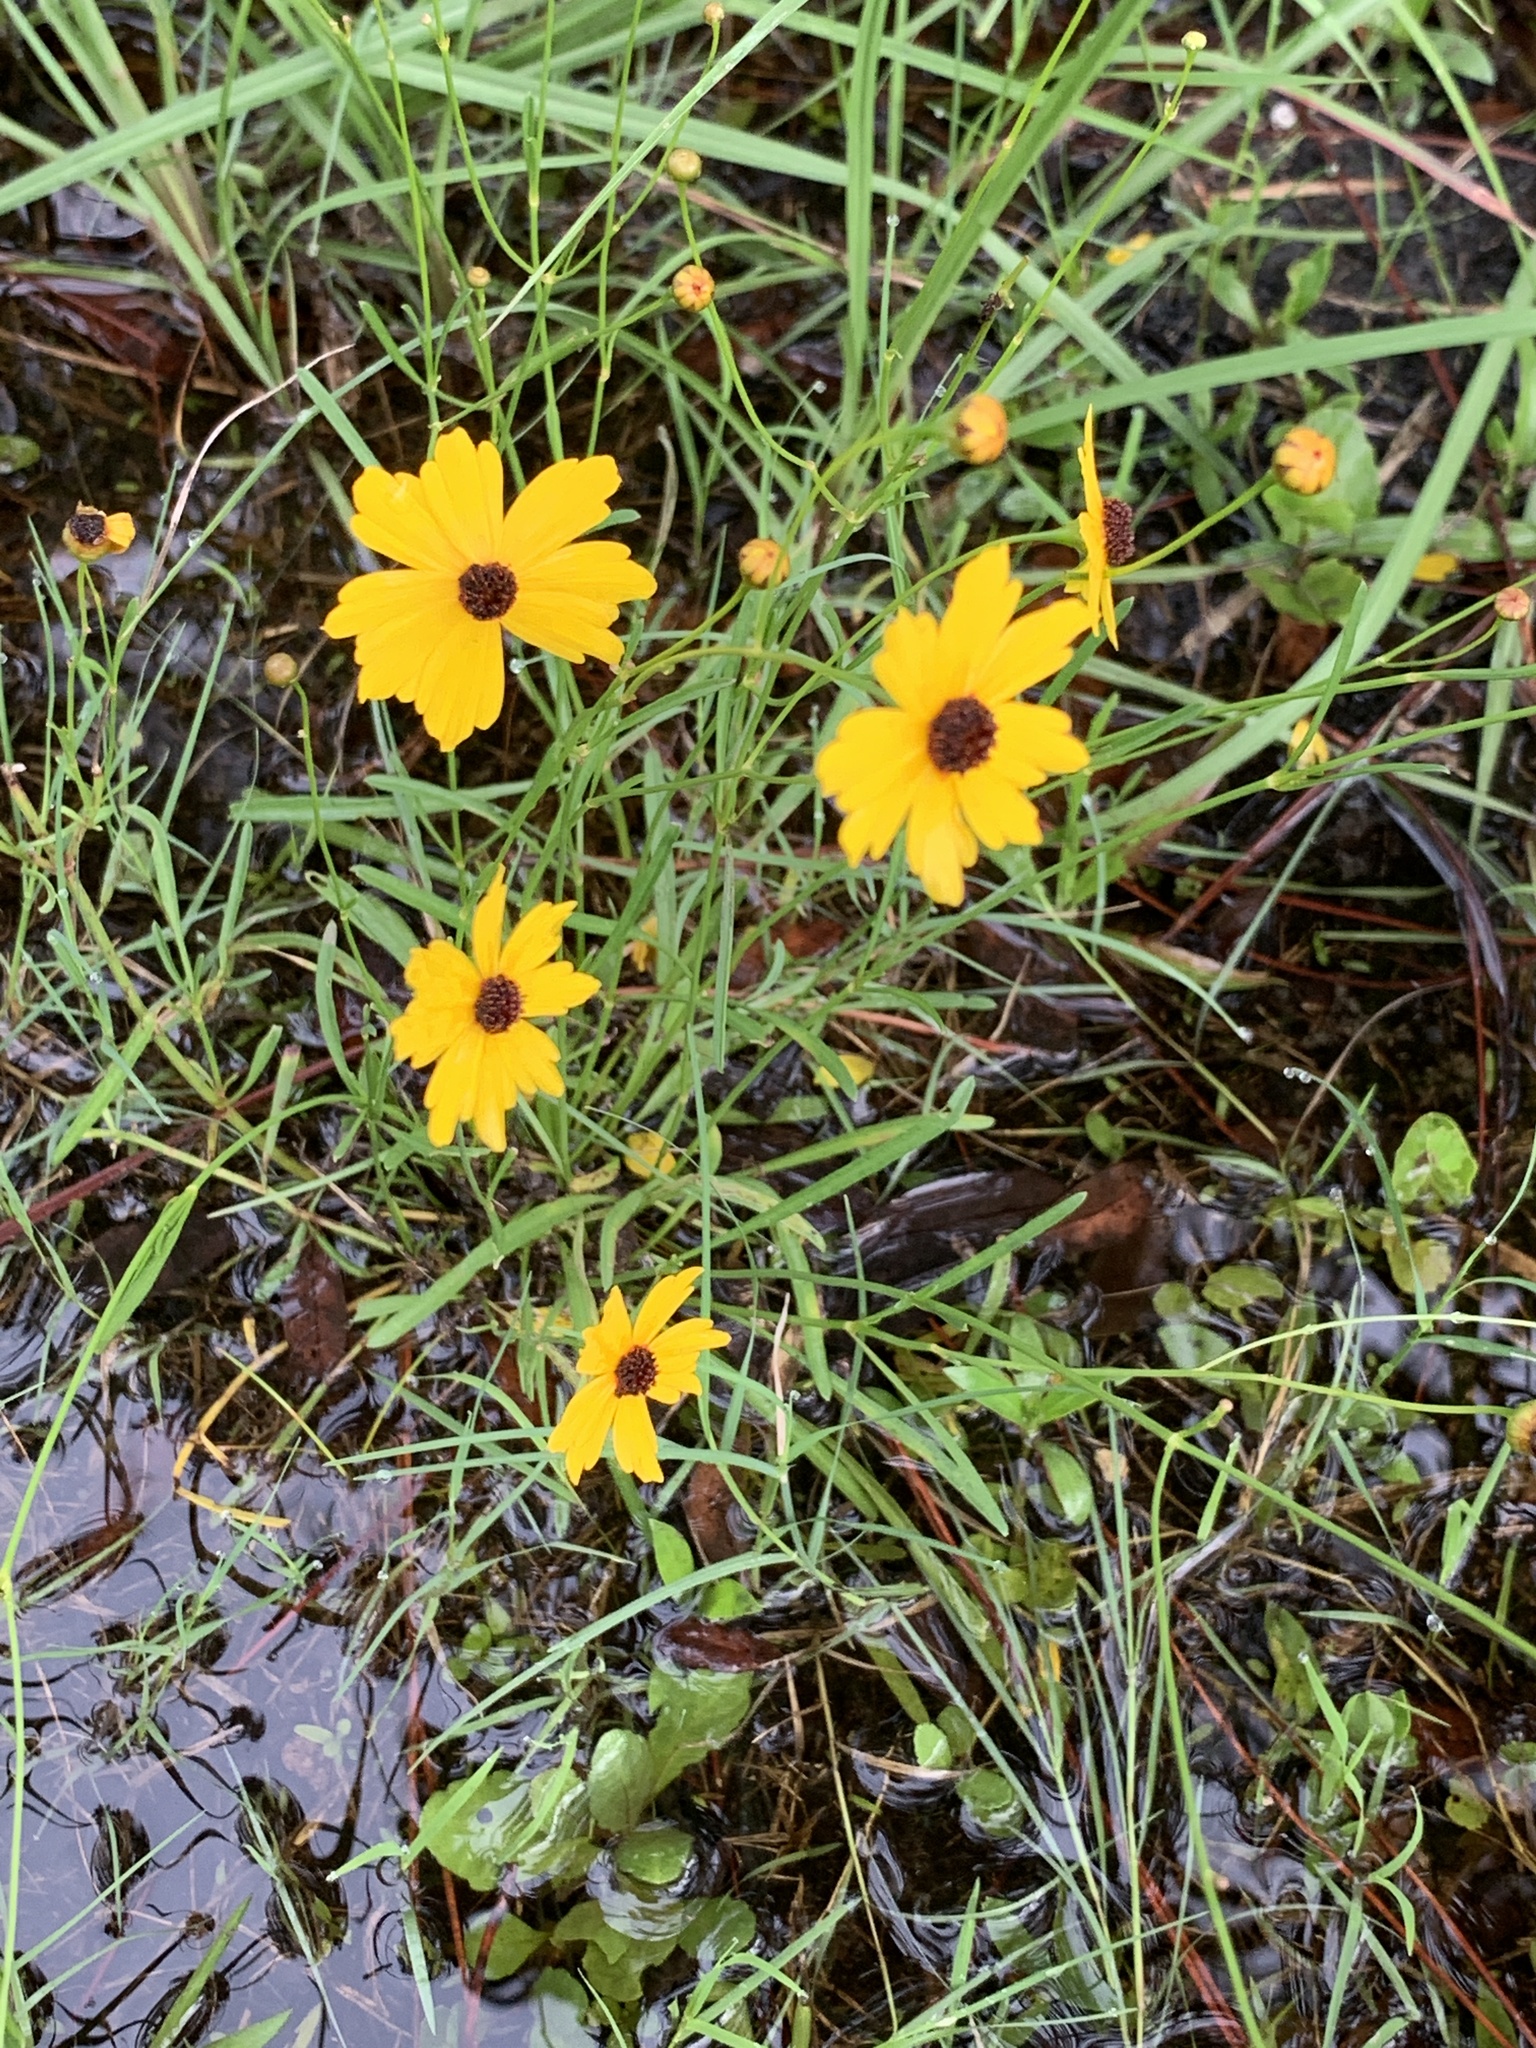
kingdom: Plantae
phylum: Tracheophyta
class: Magnoliopsida
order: Asterales
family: Asteraceae
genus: Coreopsis
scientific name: Coreopsis leavenworthii
